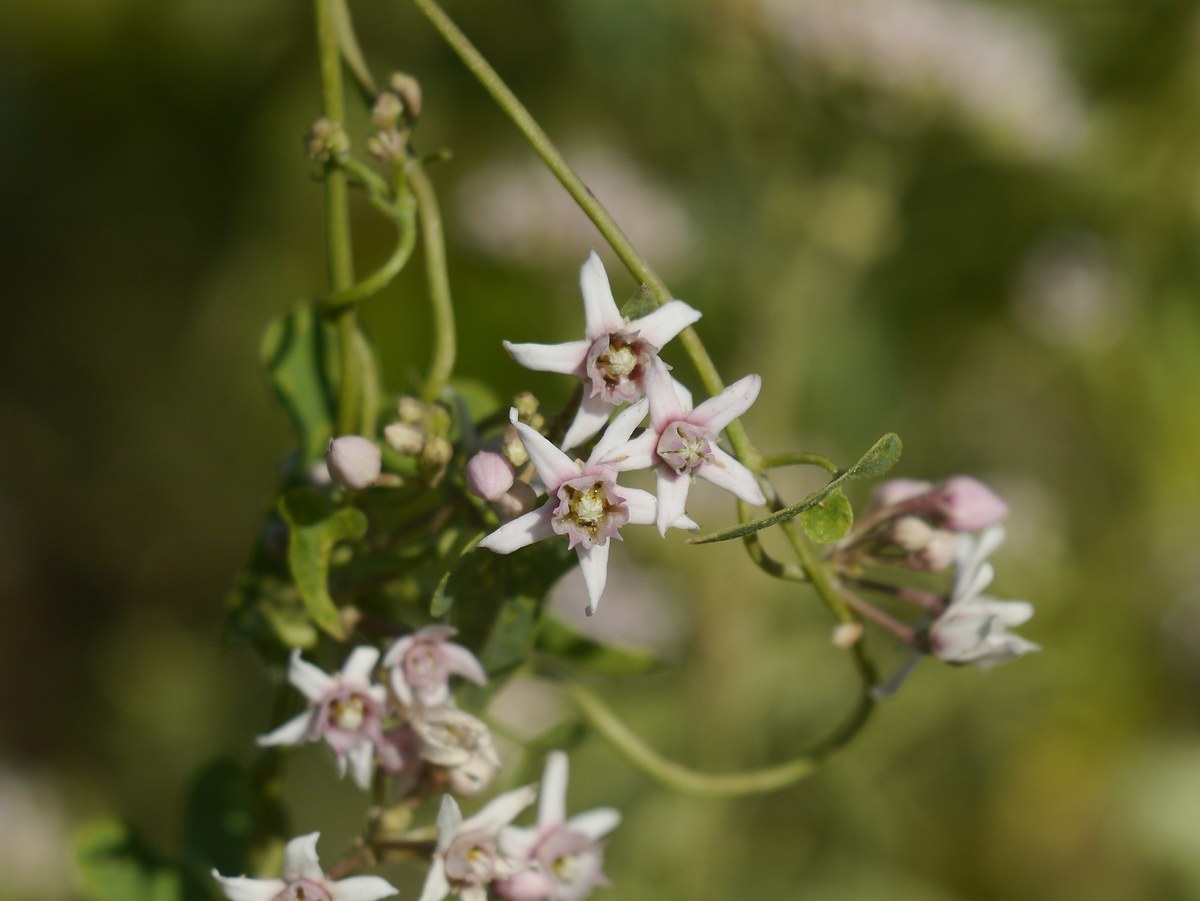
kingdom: Plantae
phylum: Tracheophyta
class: Magnoliopsida
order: Gentianales
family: Apocynaceae
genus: Cynanchum
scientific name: Cynanchum acutum
